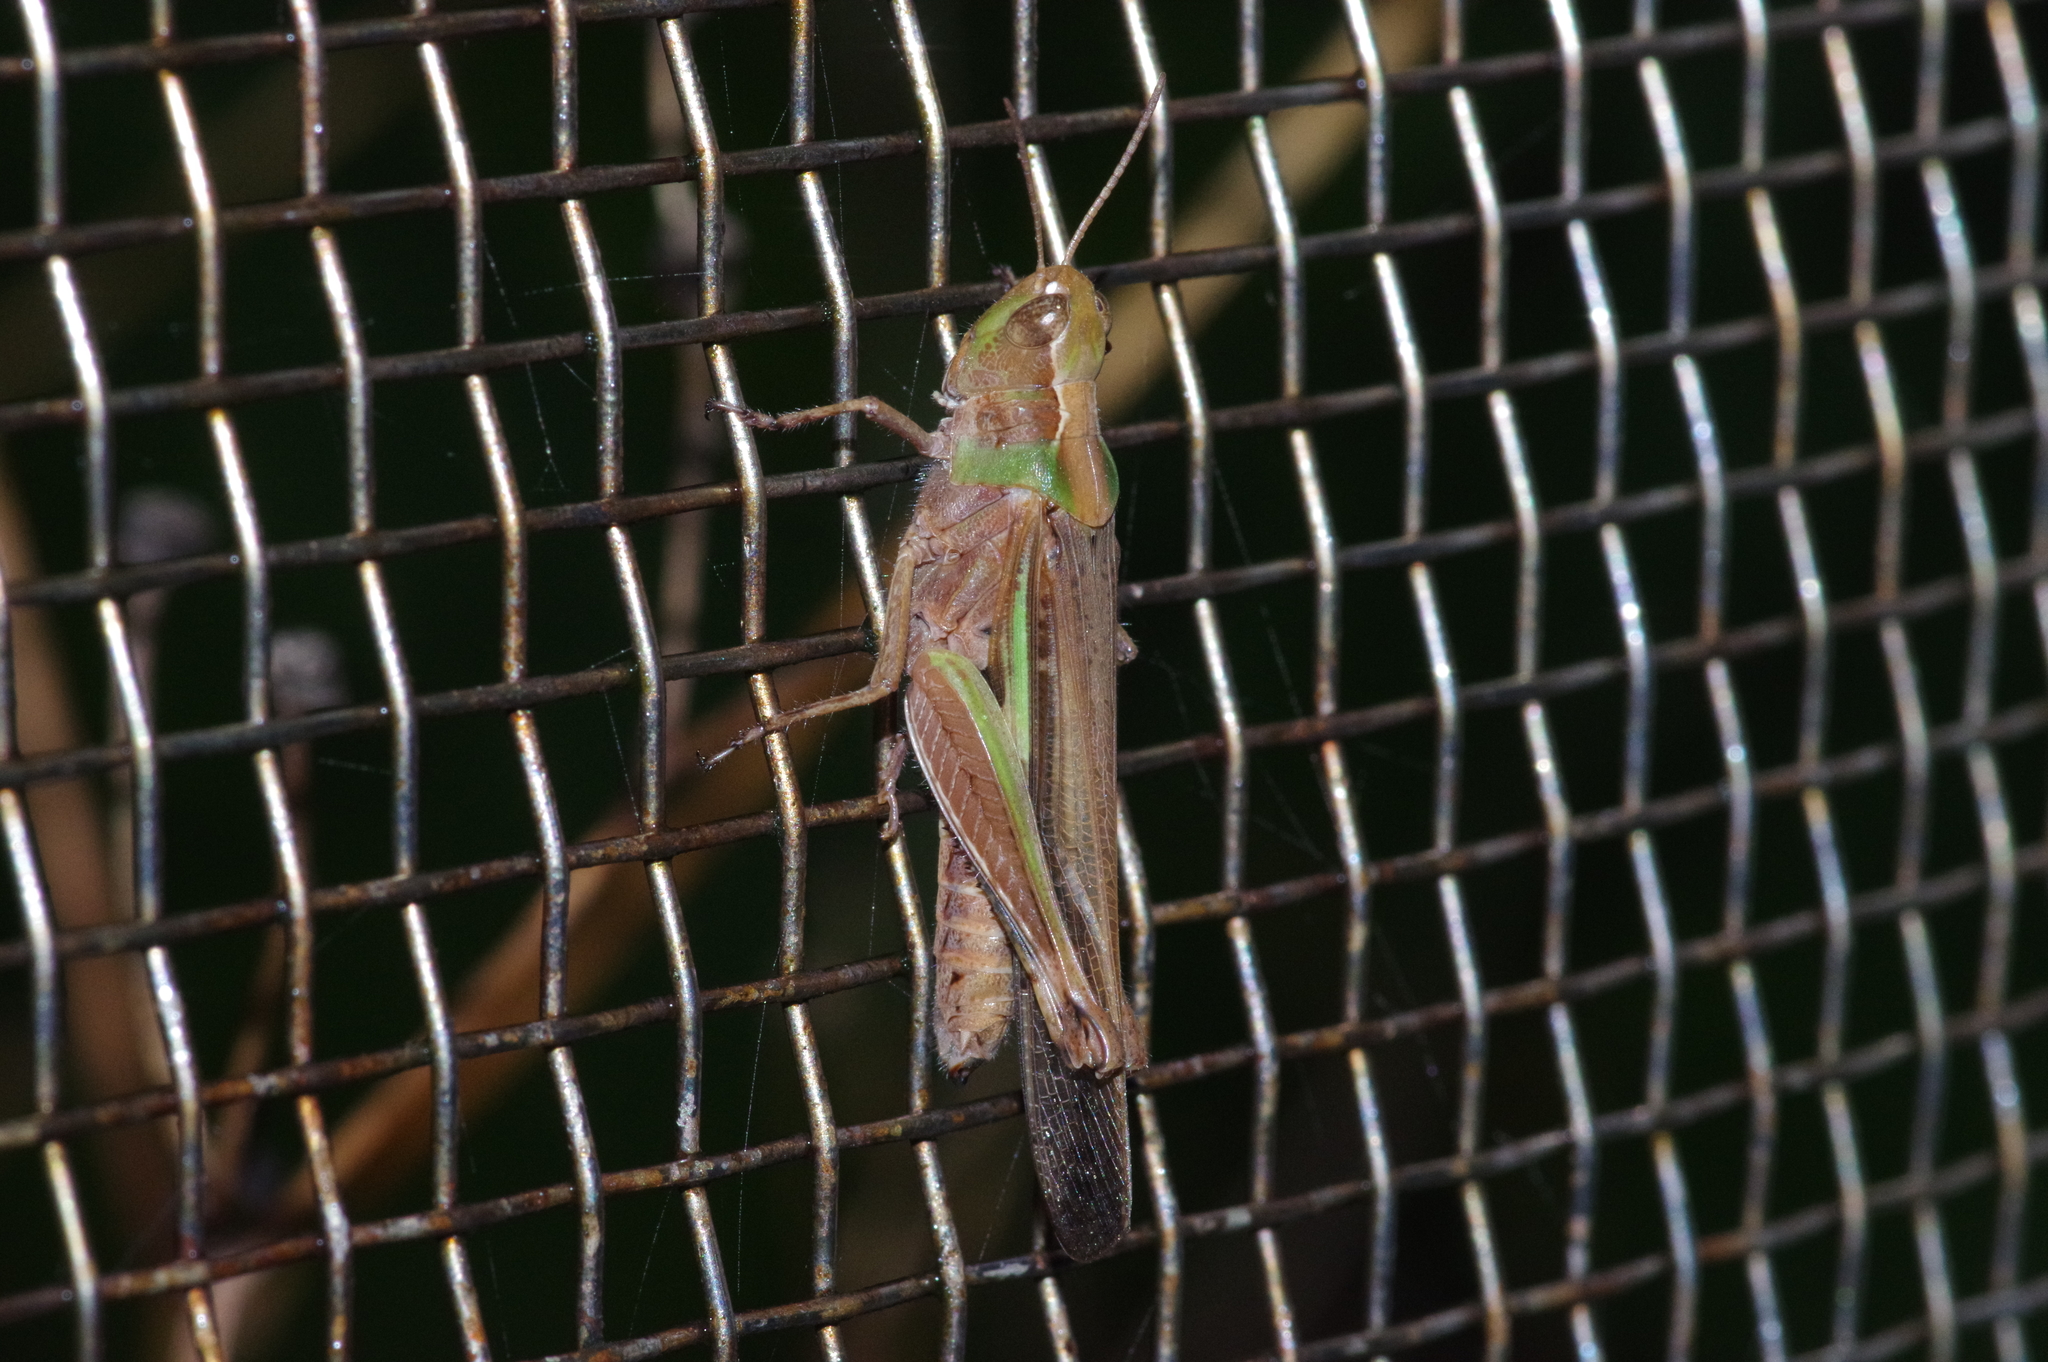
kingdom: Animalia
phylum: Arthropoda
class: Insecta
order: Orthoptera
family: Acrididae
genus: Aiolopus
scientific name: Aiolopus thalassinus
